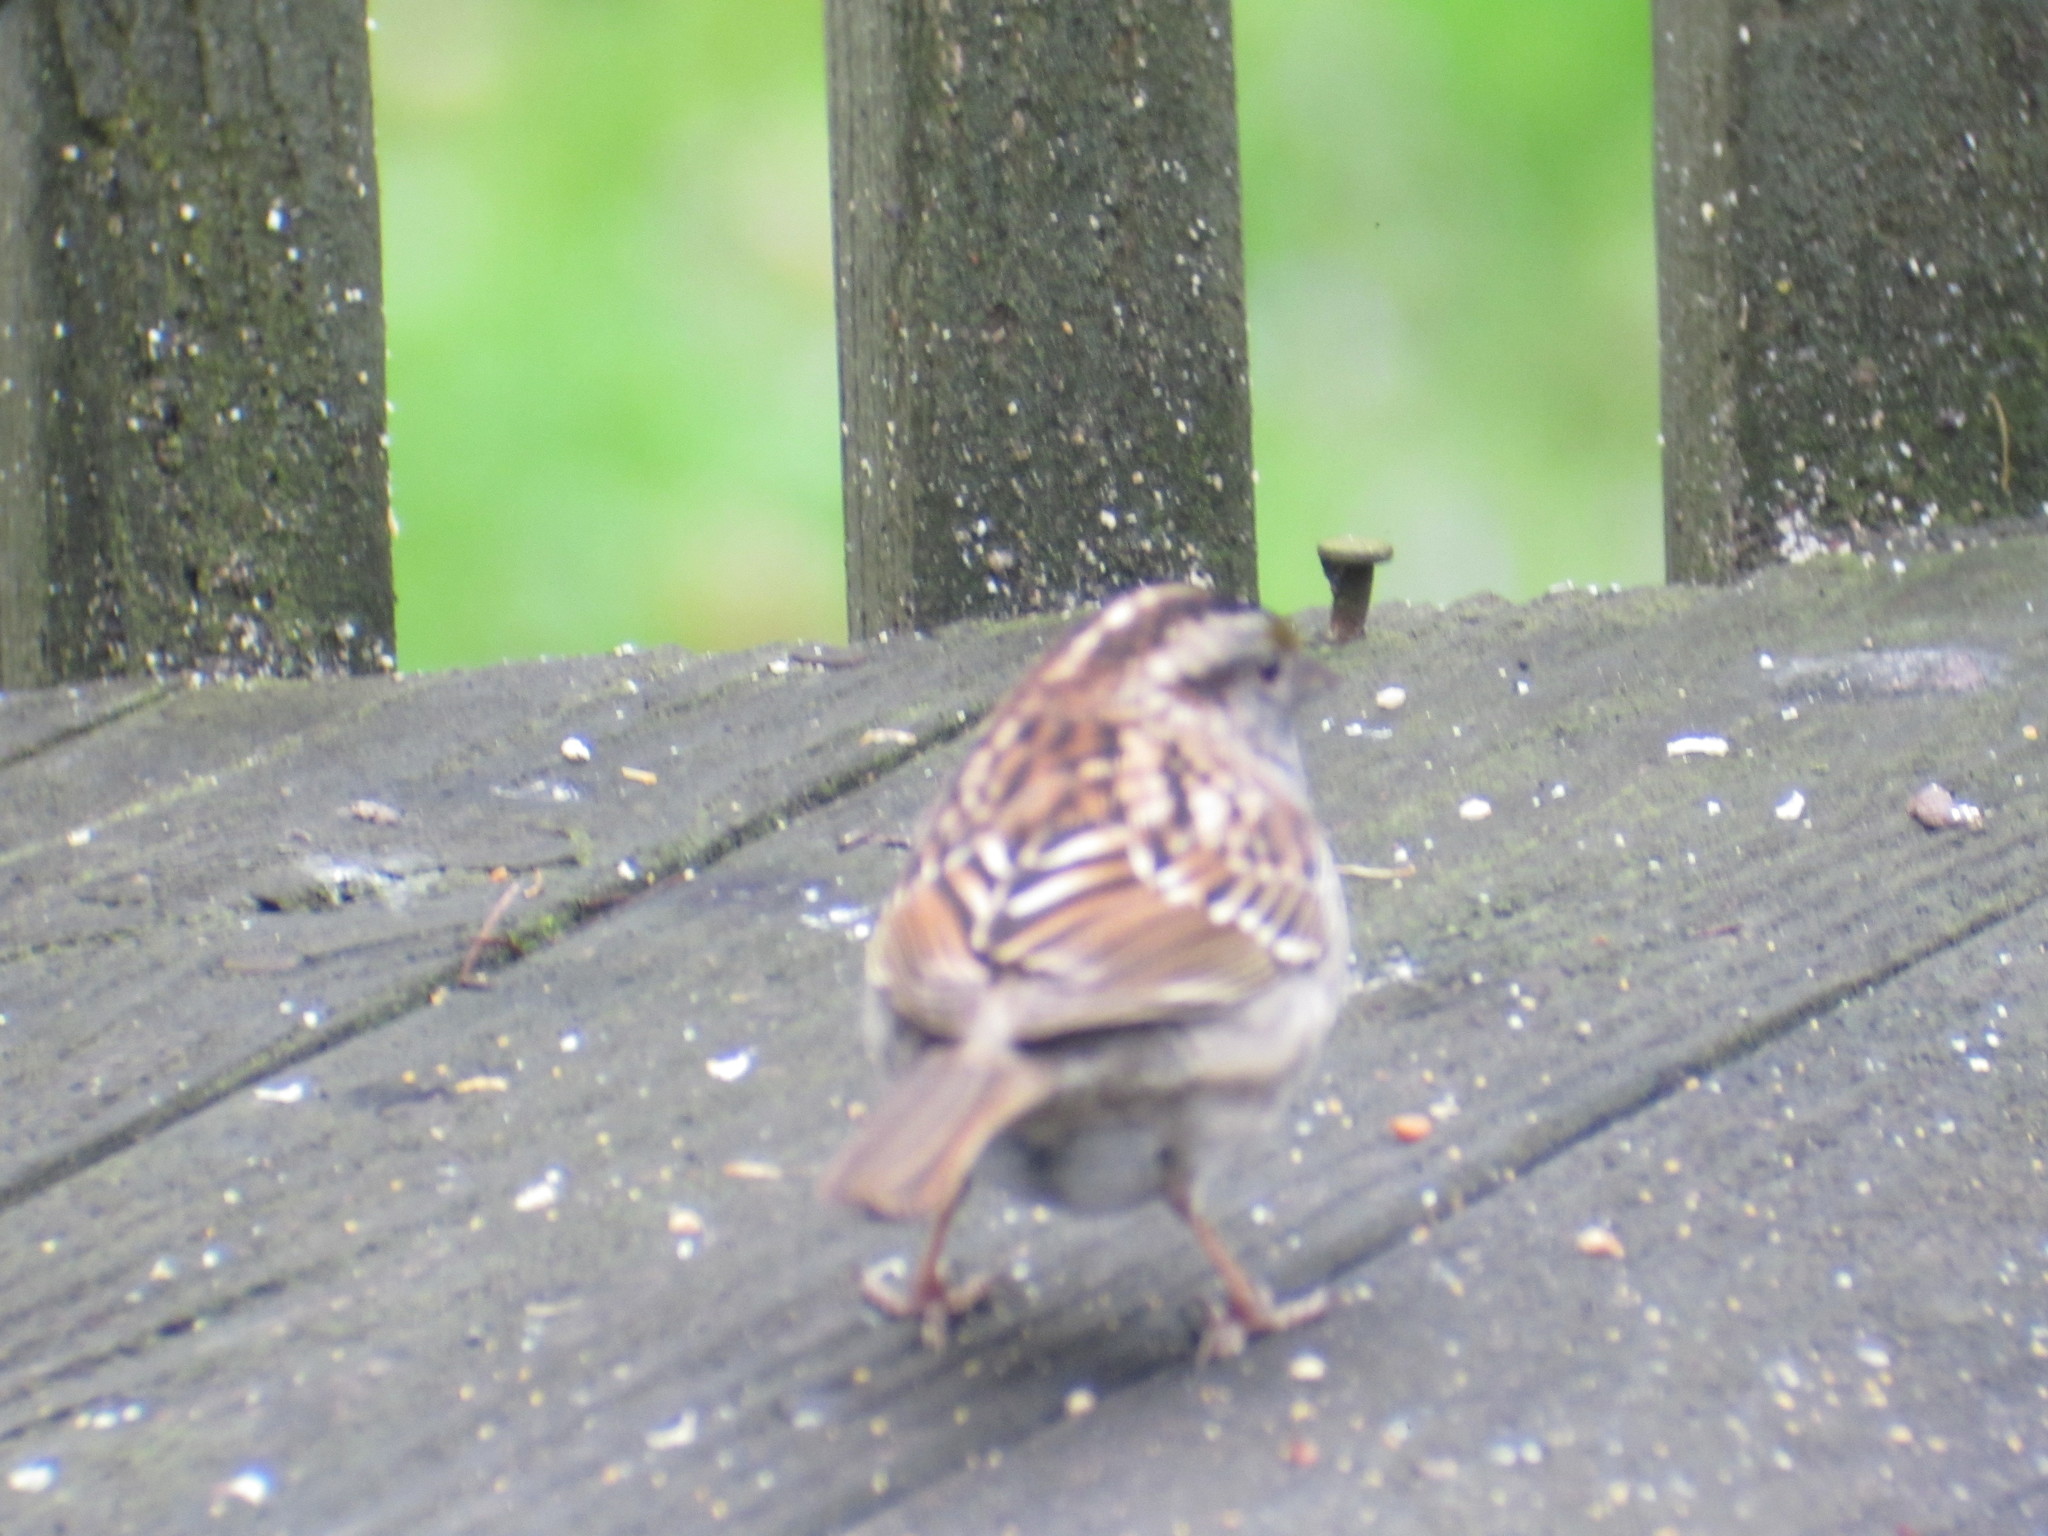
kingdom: Animalia
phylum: Chordata
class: Aves
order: Passeriformes
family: Passerellidae
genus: Zonotrichia
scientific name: Zonotrichia albicollis
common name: White-throated sparrow
